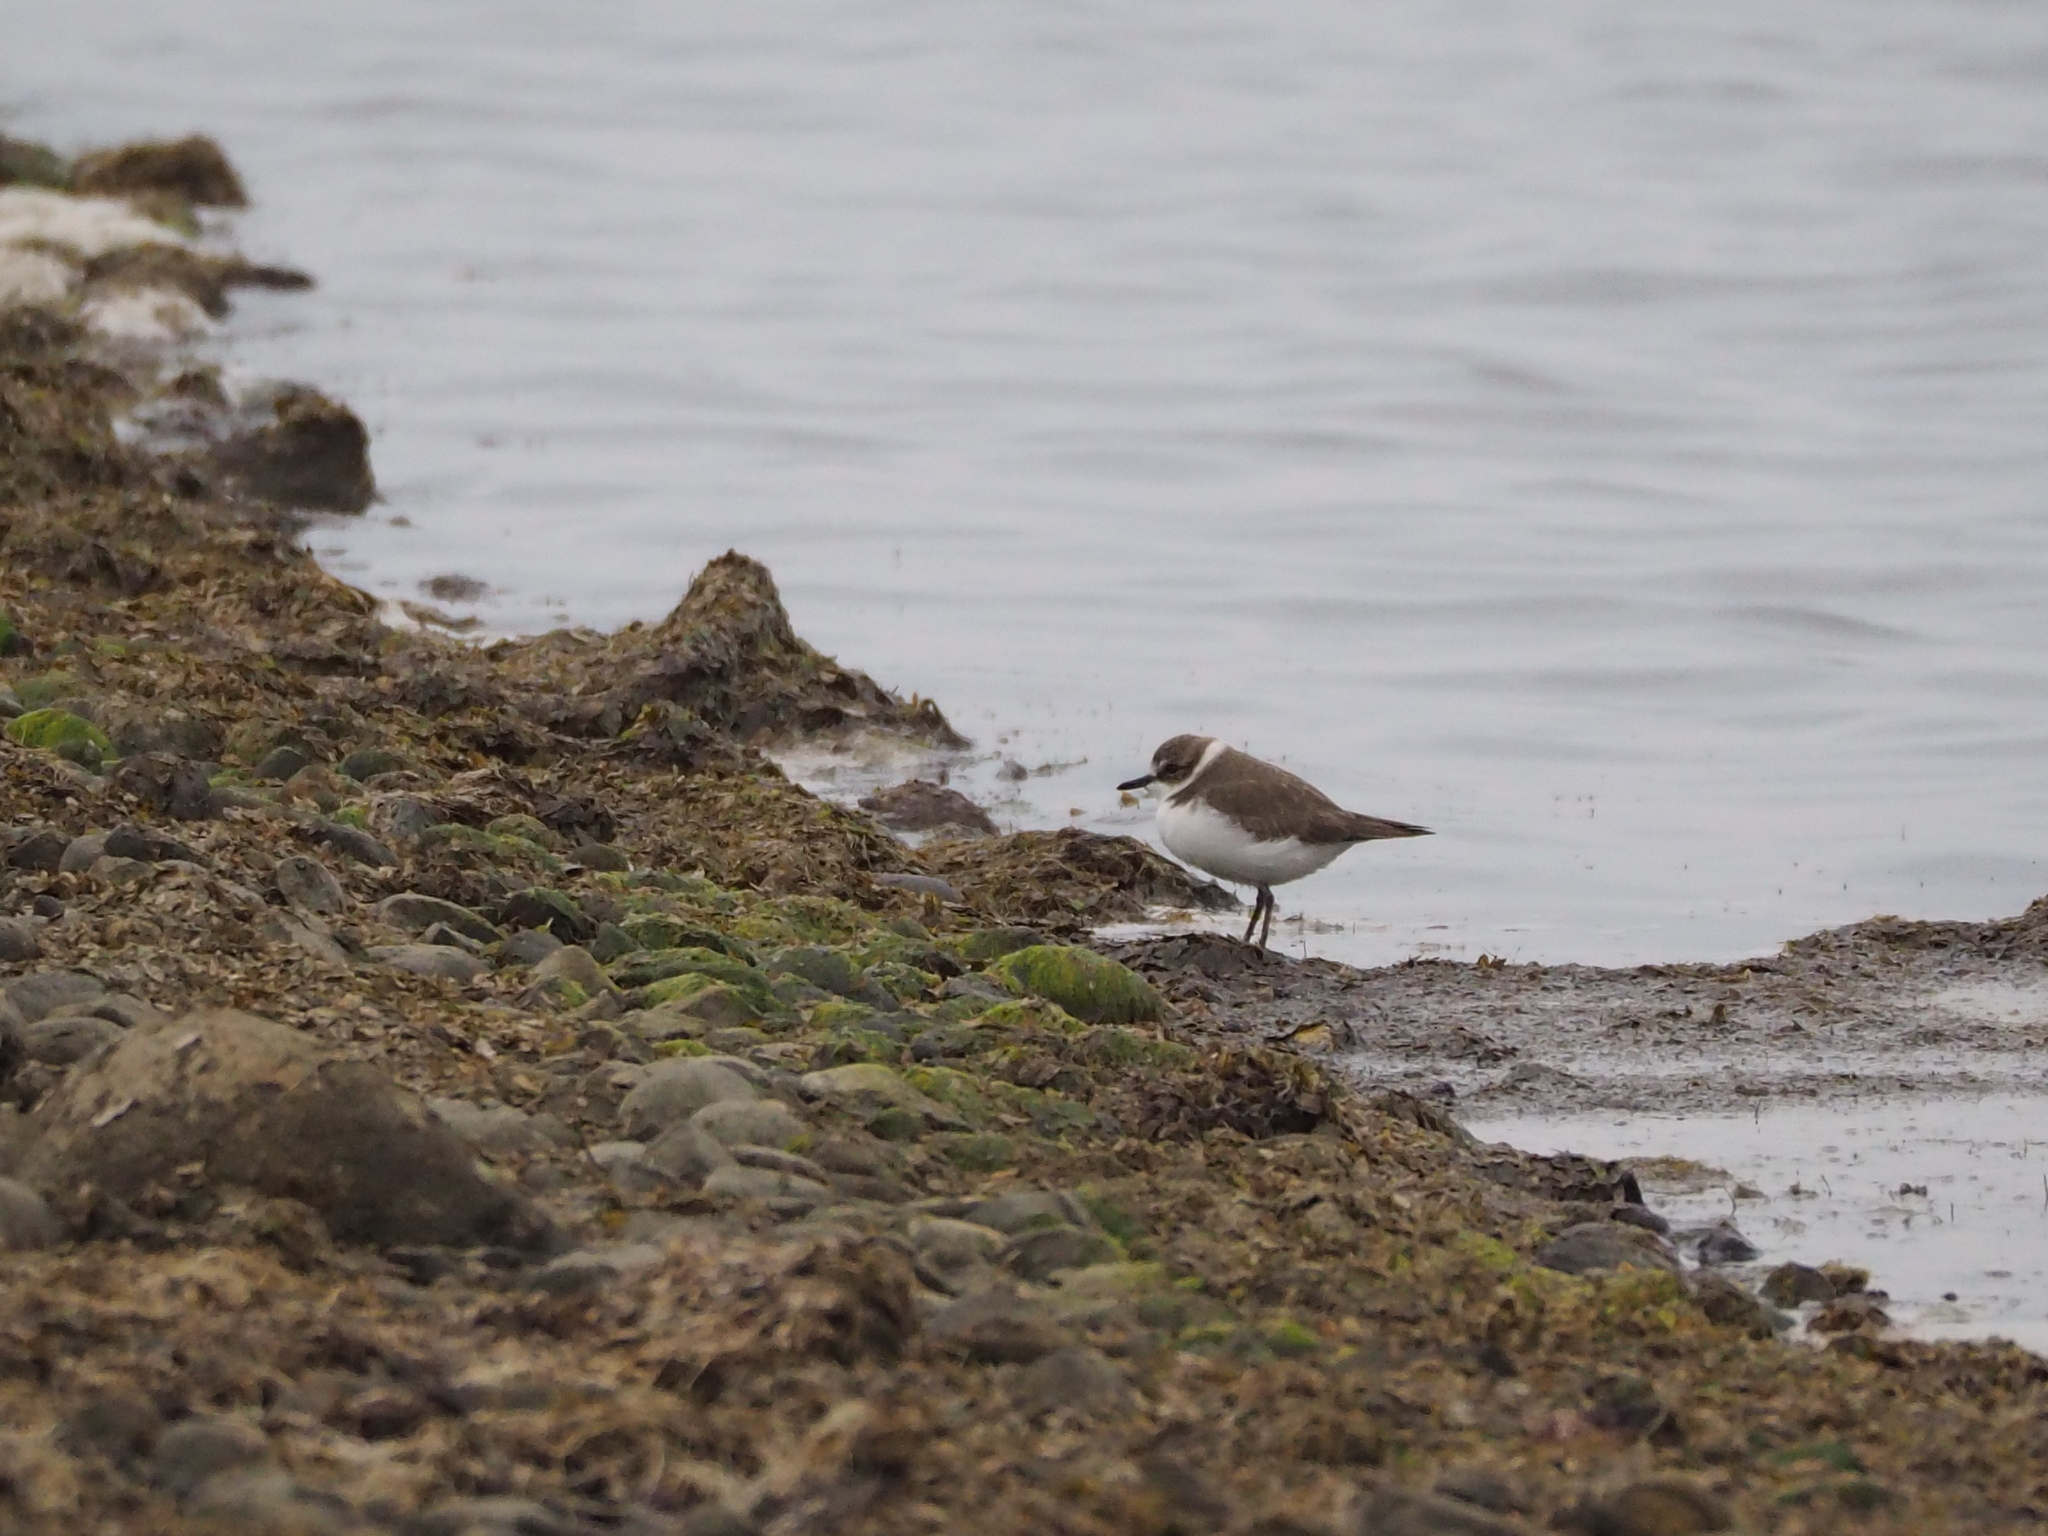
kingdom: Animalia
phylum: Chordata
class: Aves
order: Charadriiformes
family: Charadriidae
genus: Charadrius
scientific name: Charadrius alexandrinus
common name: Kentish plover
